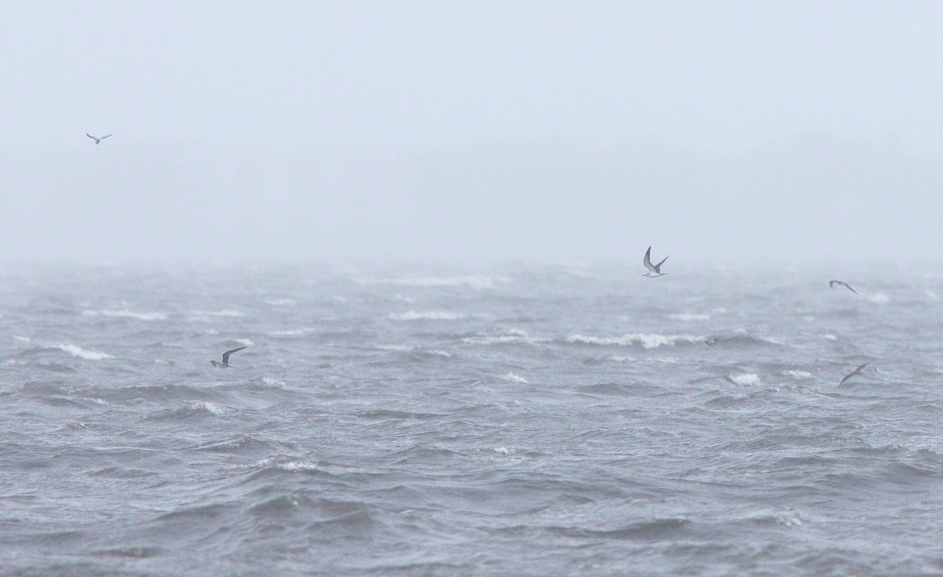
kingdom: Animalia
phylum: Chordata
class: Aves
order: Charadriiformes
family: Laridae
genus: Onychoprion
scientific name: Onychoprion anaethetus
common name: Bridled tern
